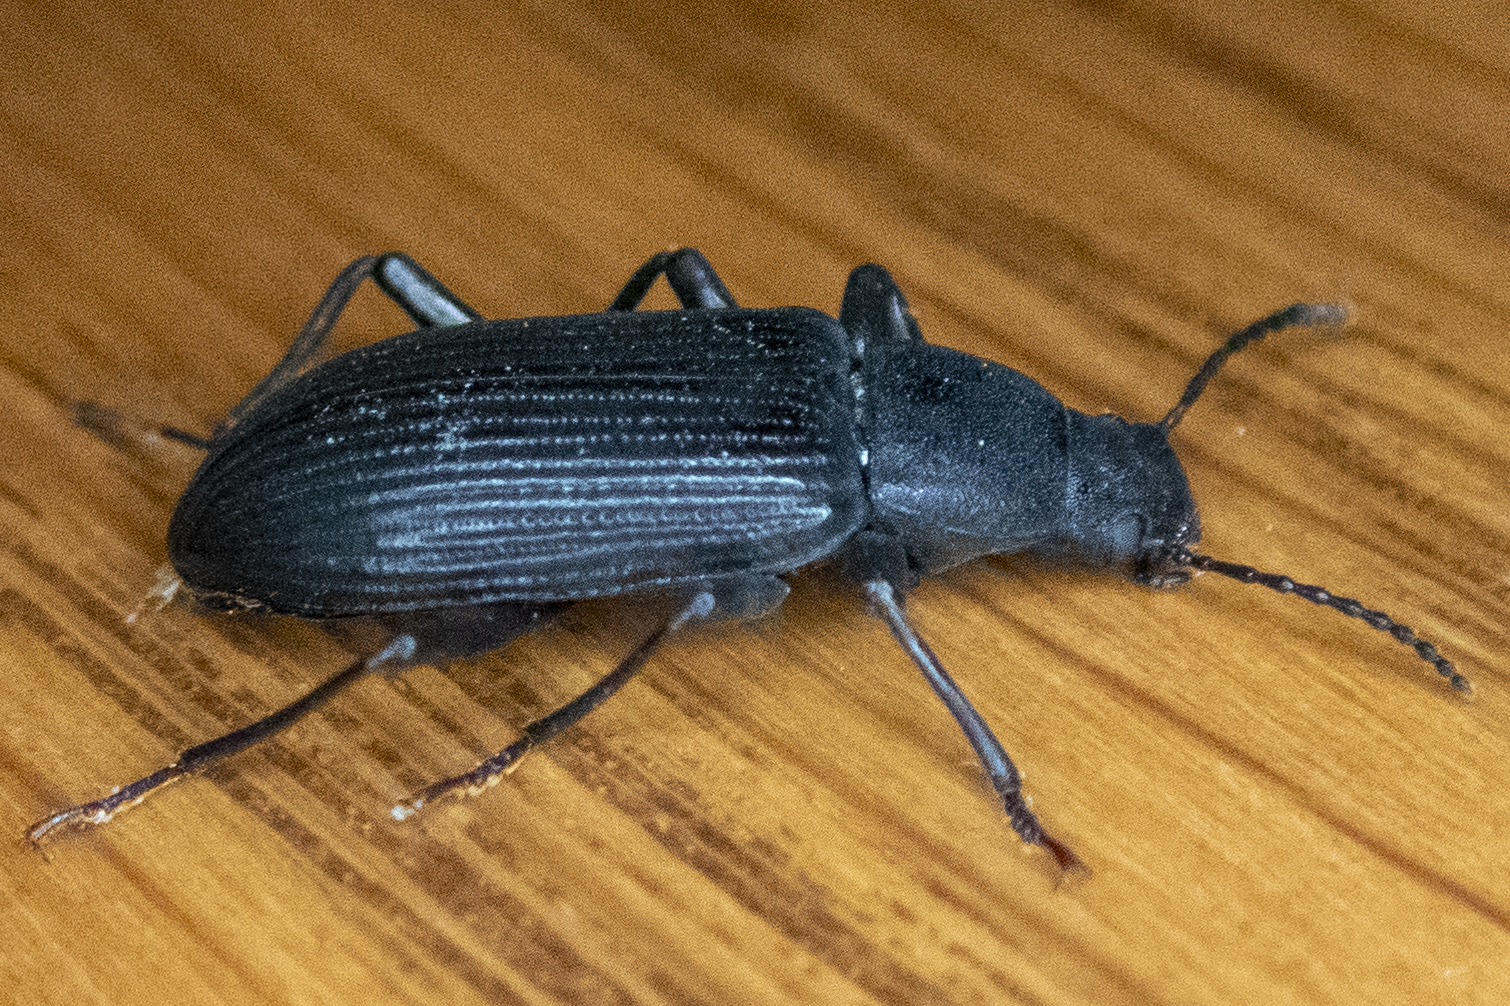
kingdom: Animalia
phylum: Arthropoda
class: Insecta
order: Coleoptera
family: Tenebrionidae
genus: Xylopinus
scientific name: Xylopinus saperdoides
